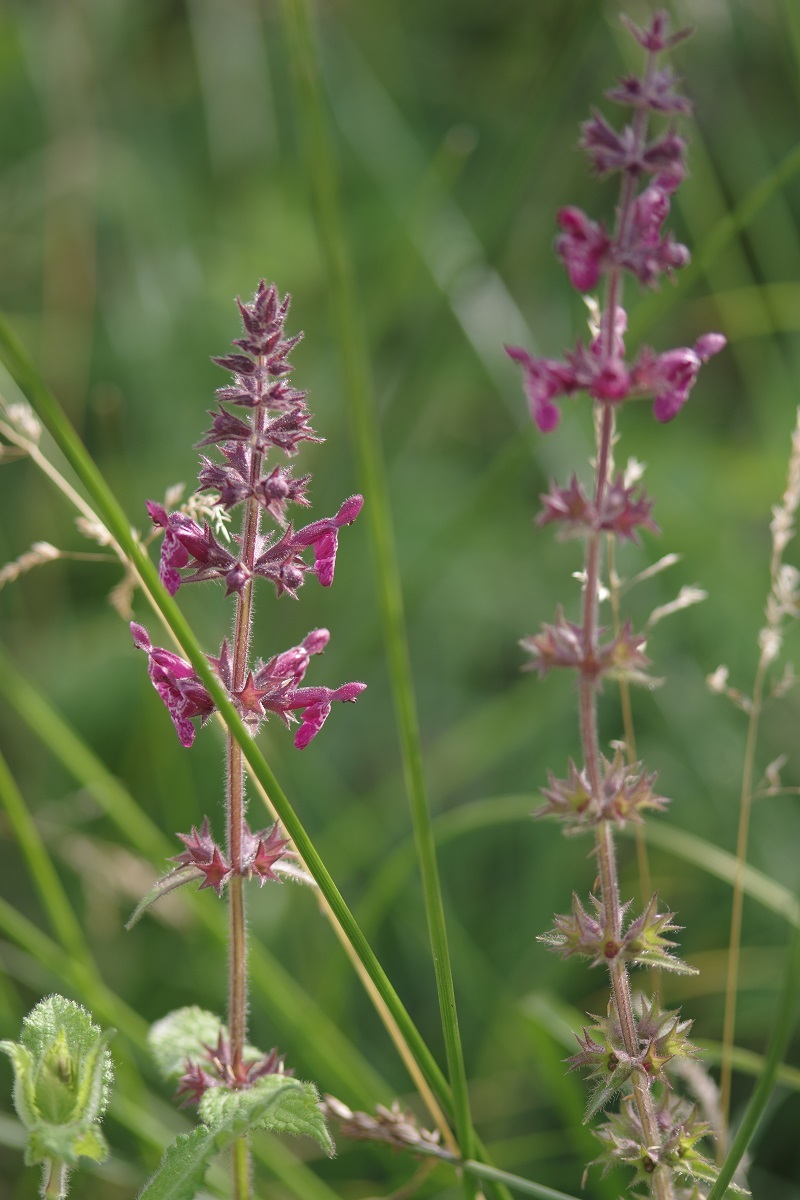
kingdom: Plantae
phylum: Tracheophyta
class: Magnoliopsida
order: Lamiales
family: Lamiaceae
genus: Stachys
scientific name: Stachys sylvatica
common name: Hedge woundwort
